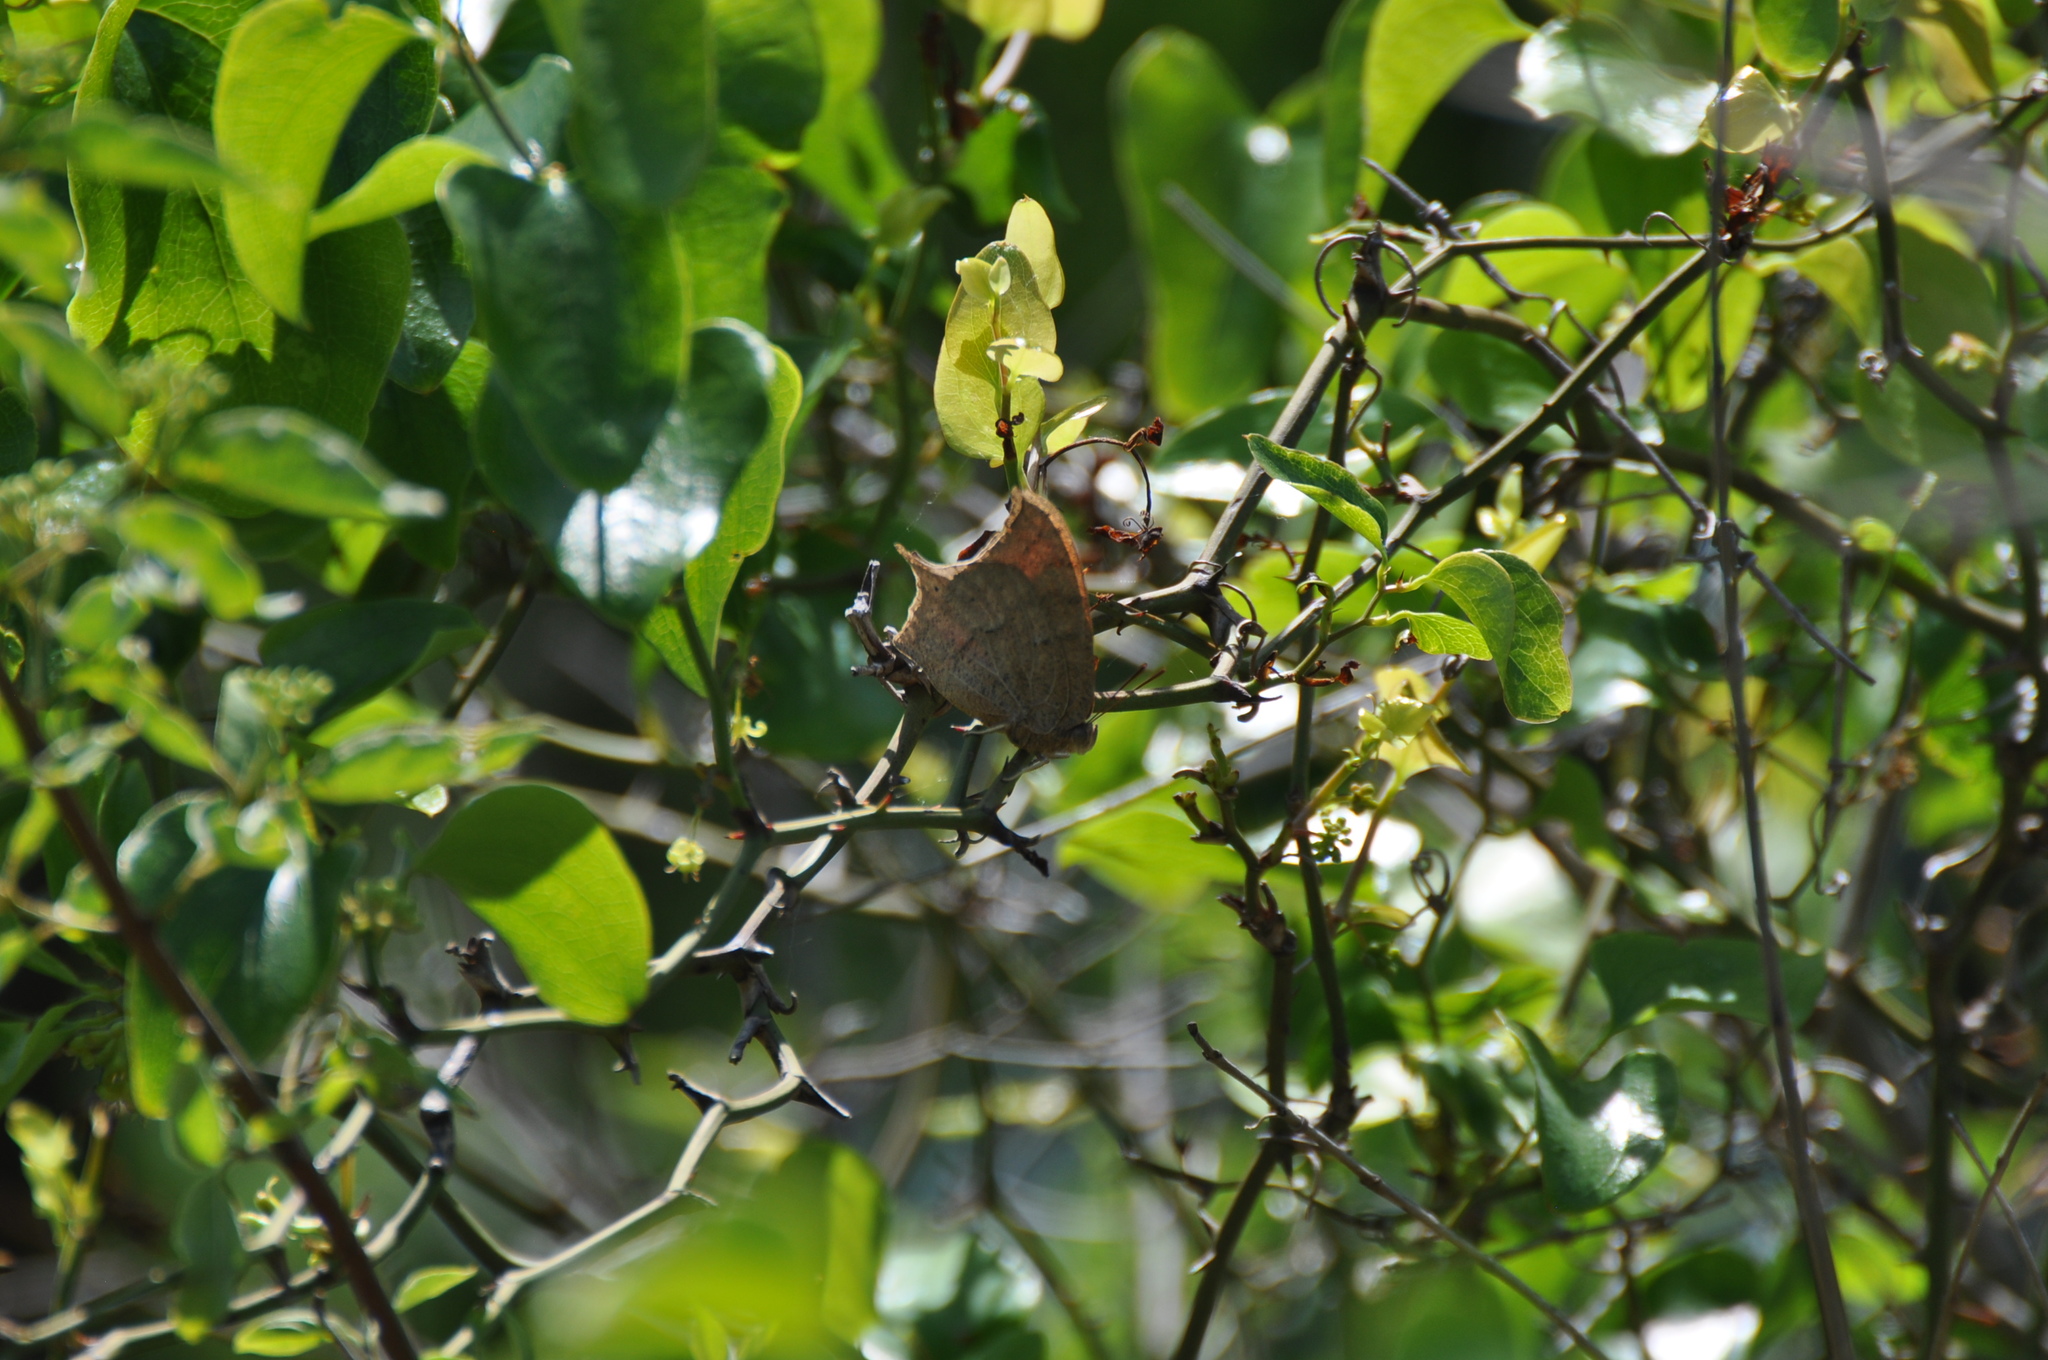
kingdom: Animalia
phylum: Arthropoda
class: Insecta
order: Lepidoptera
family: Nymphalidae
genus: Anaea
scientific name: Anaea andria
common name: Goatweed leafwing
